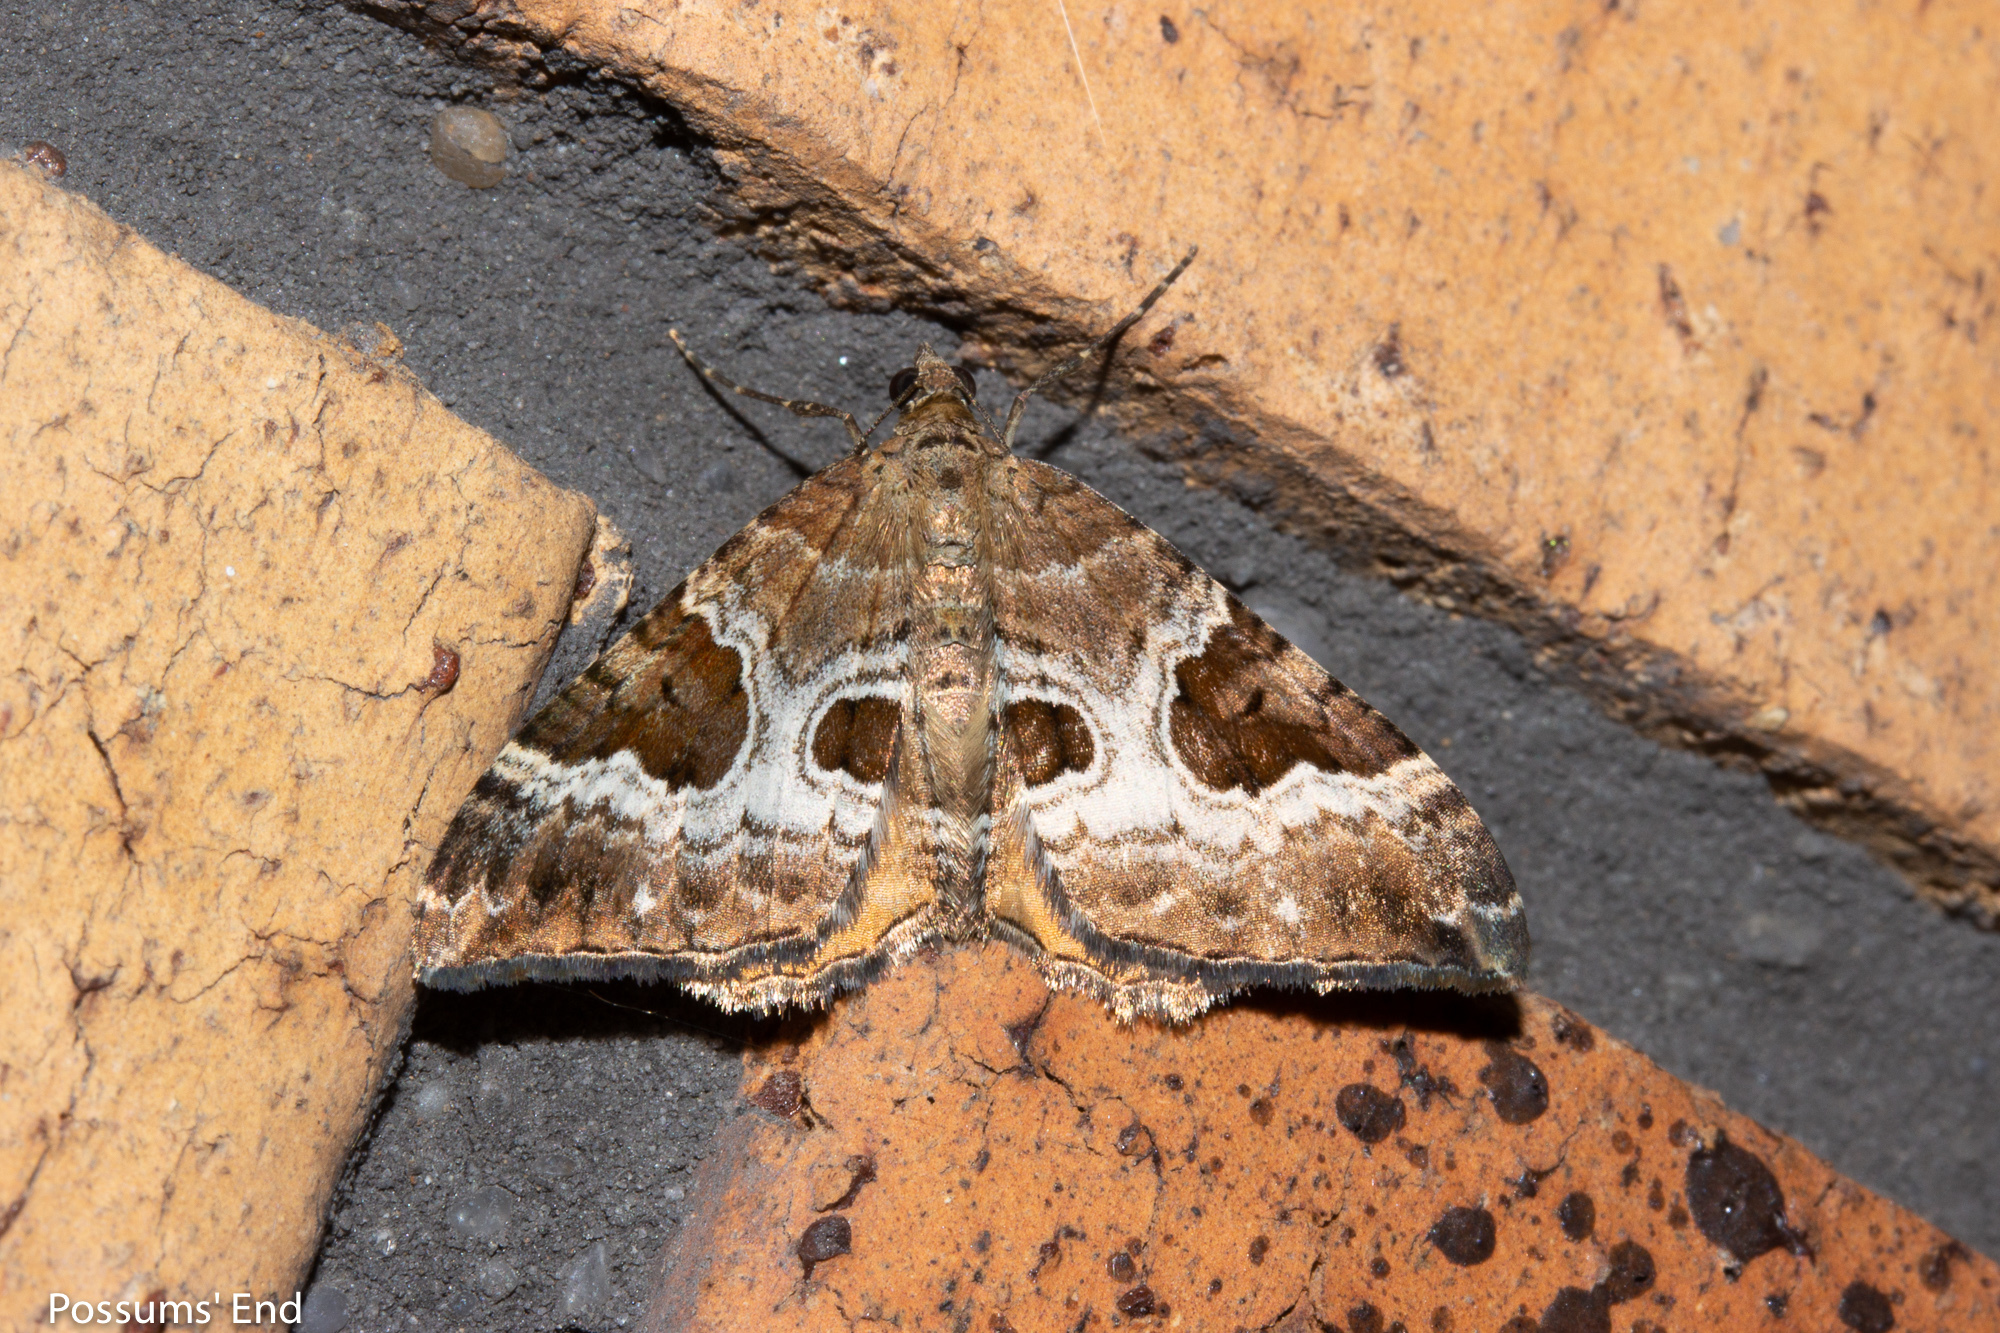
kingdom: Animalia
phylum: Arthropoda
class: Insecta
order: Lepidoptera
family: Geometridae
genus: Hydriomena
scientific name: Hydriomena deltoidata
